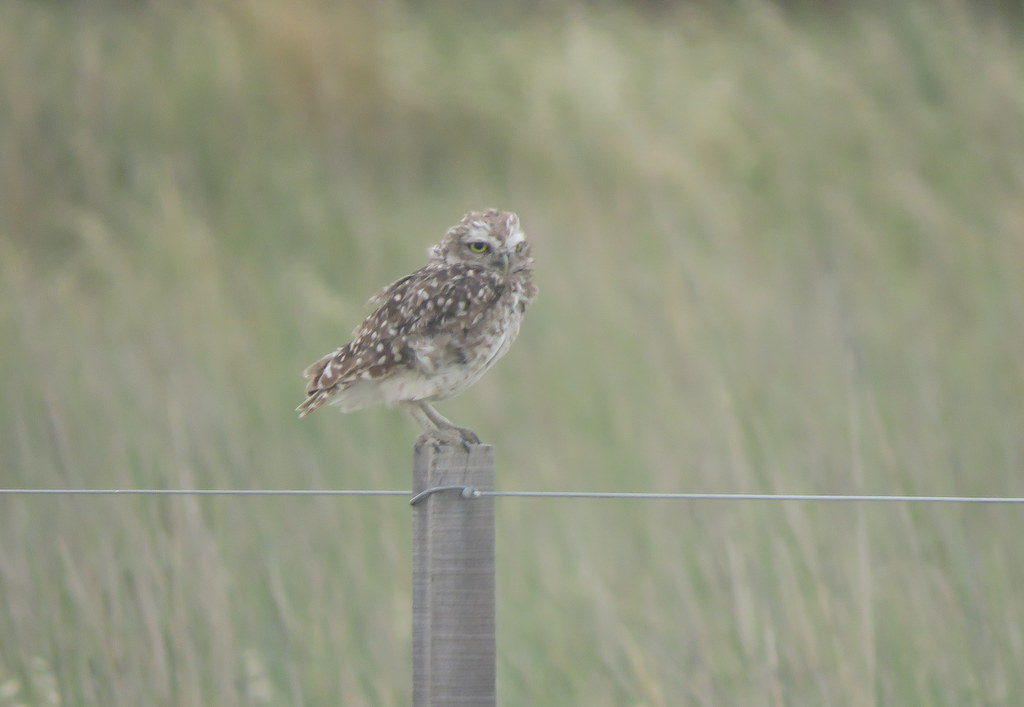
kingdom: Animalia
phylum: Chordata
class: Aves
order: Strigiformes
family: Strigidae
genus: Athene
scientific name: Athene cunicularia
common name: Burrowing owl
